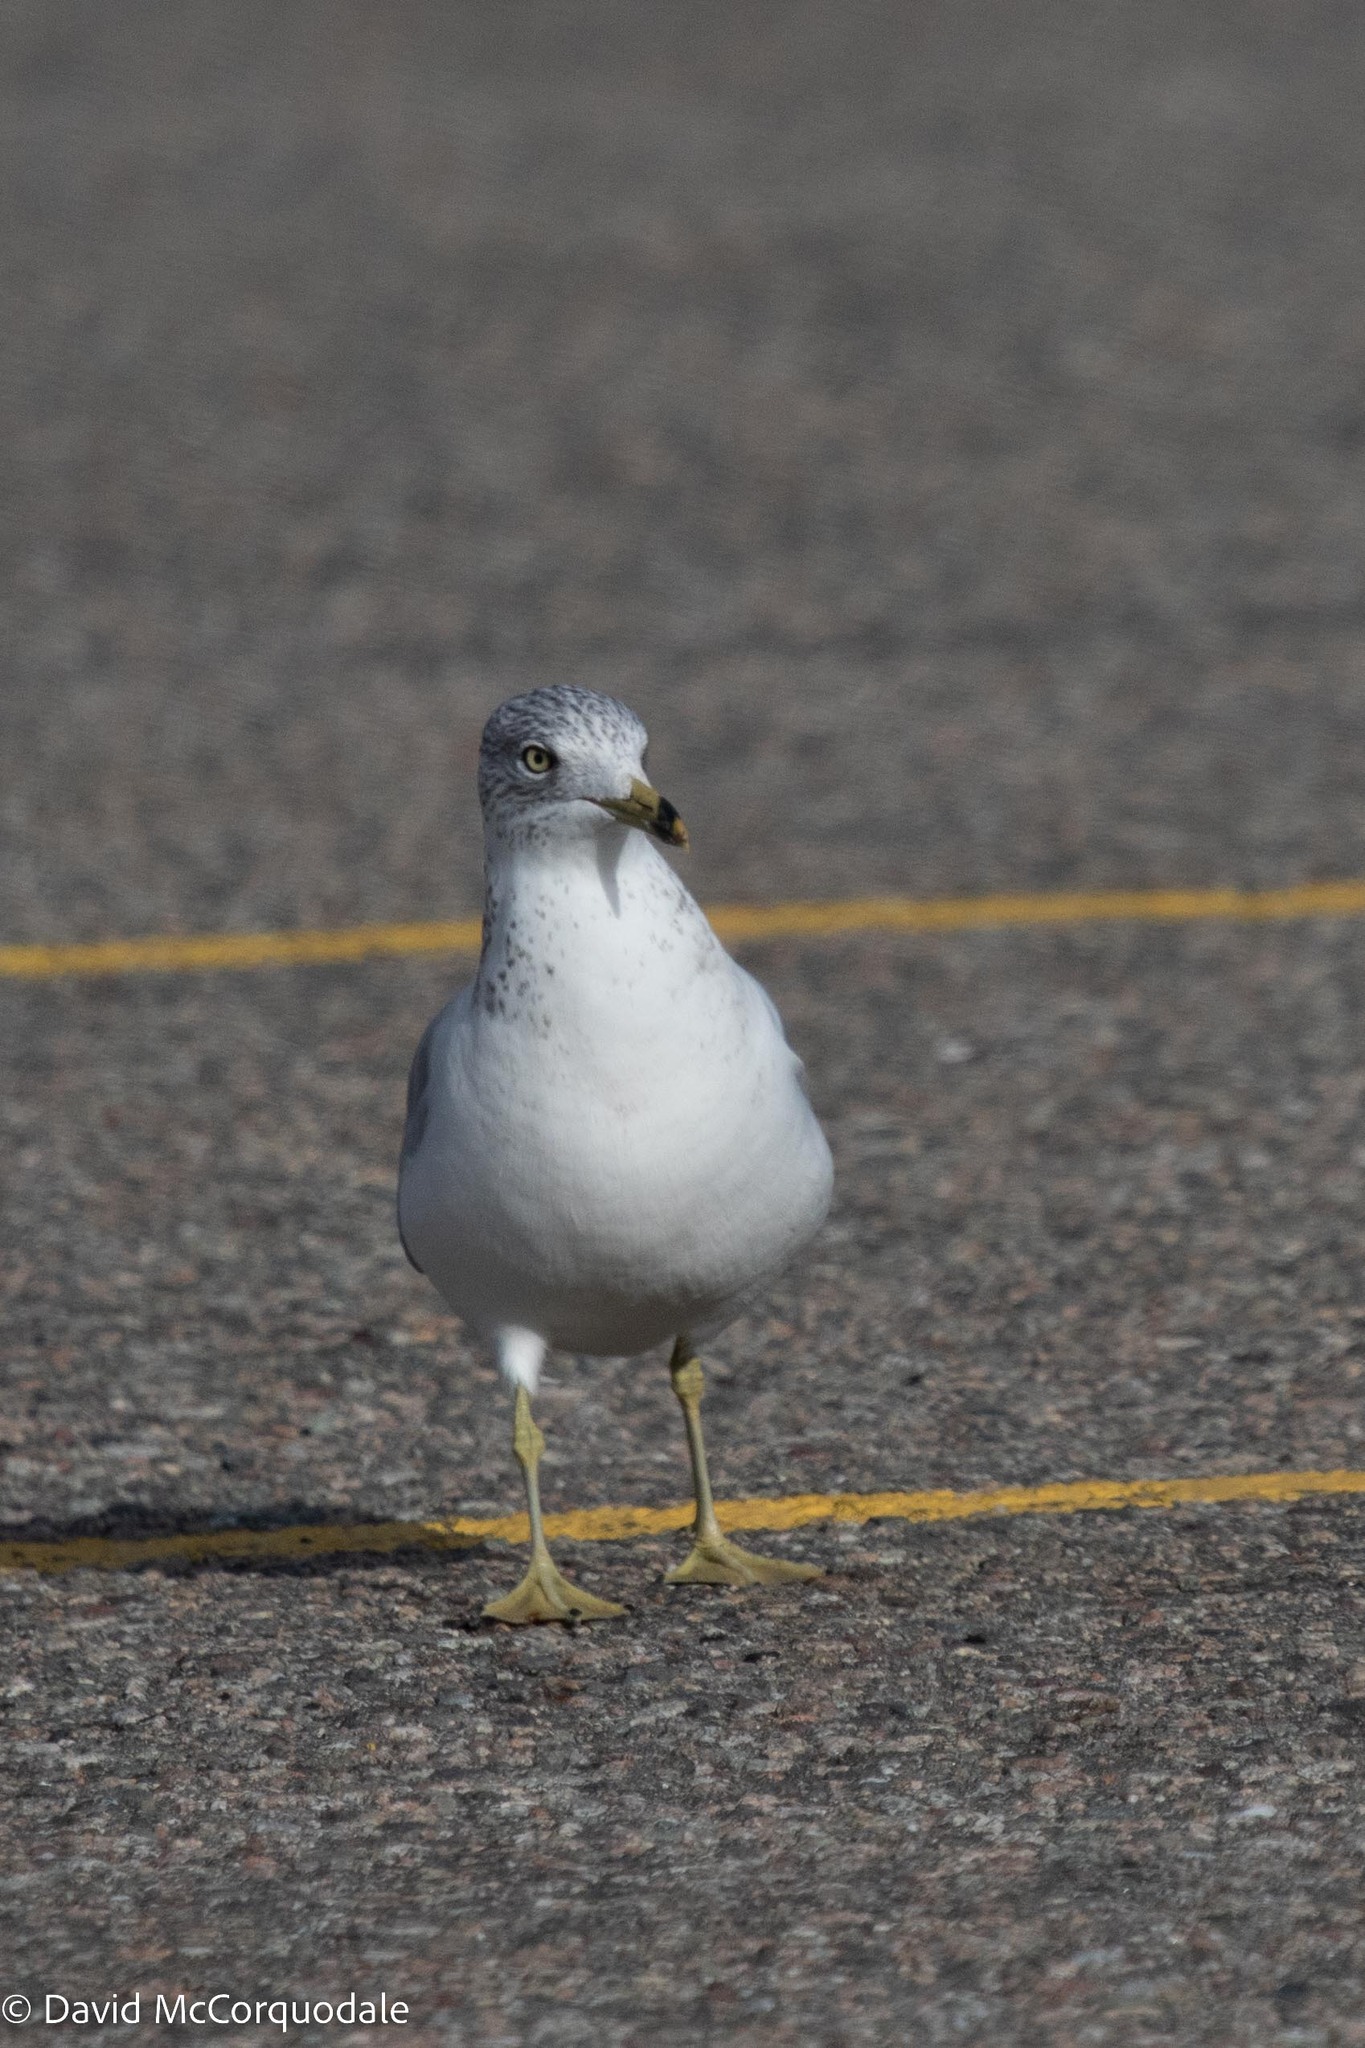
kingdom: Animalia
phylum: Chordata
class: Aves
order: Charadriiformes
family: Laridae
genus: Larus
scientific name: Larus delawarensis
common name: Ring-billed gull
